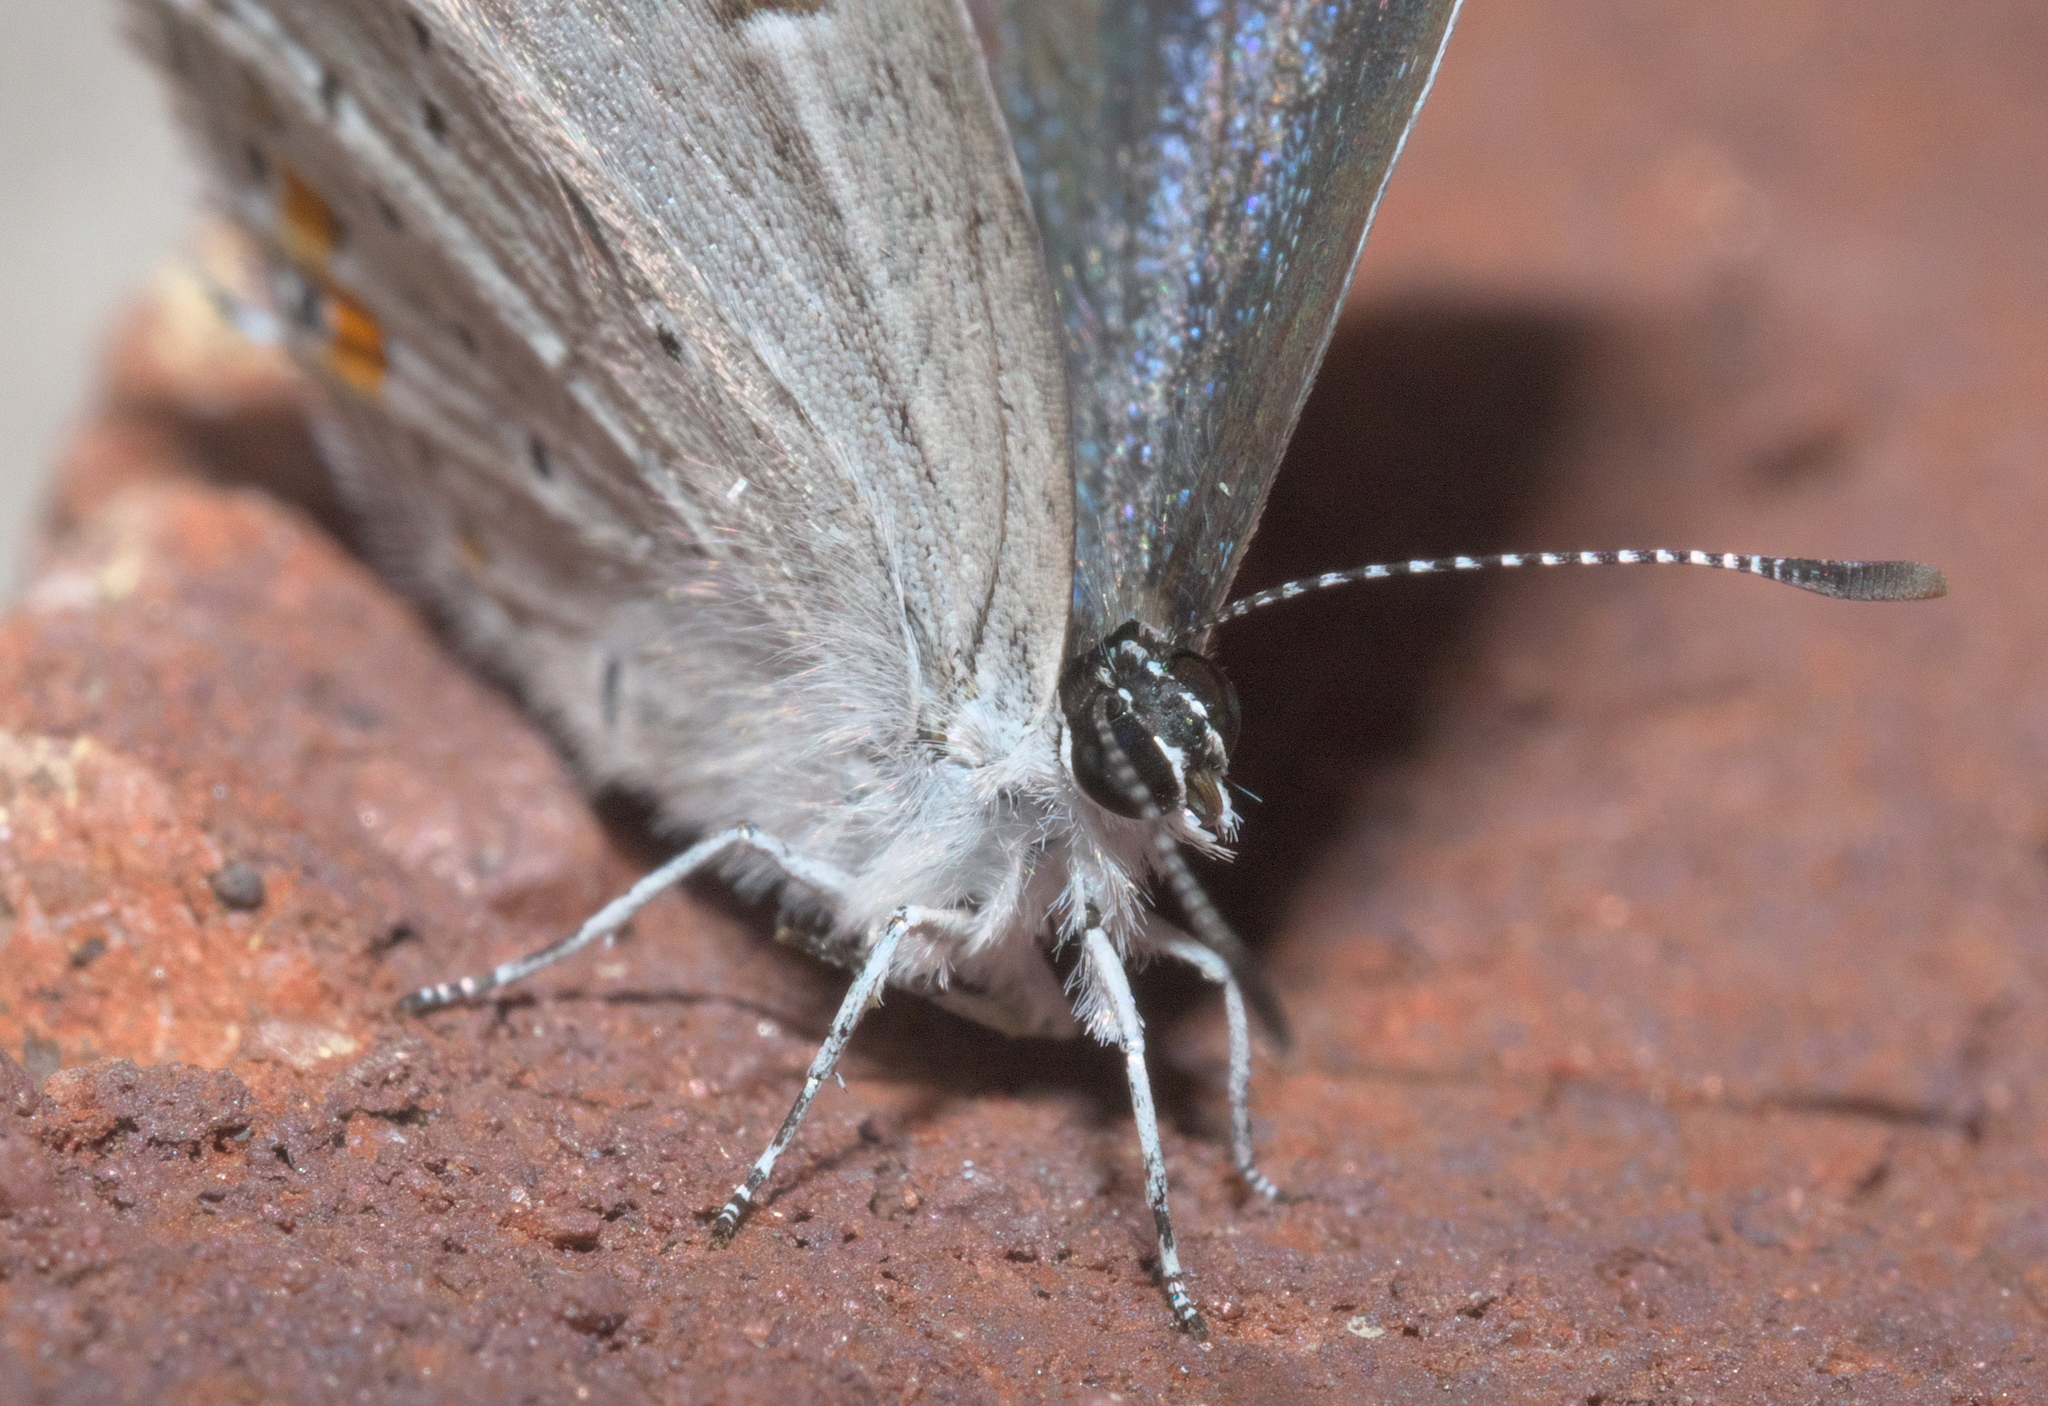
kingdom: Animalia
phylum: Arthropoda
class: Insecta
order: Lepidoptera
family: Lycaenidae
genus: Elkalyce
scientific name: Elkalyce comyntas
